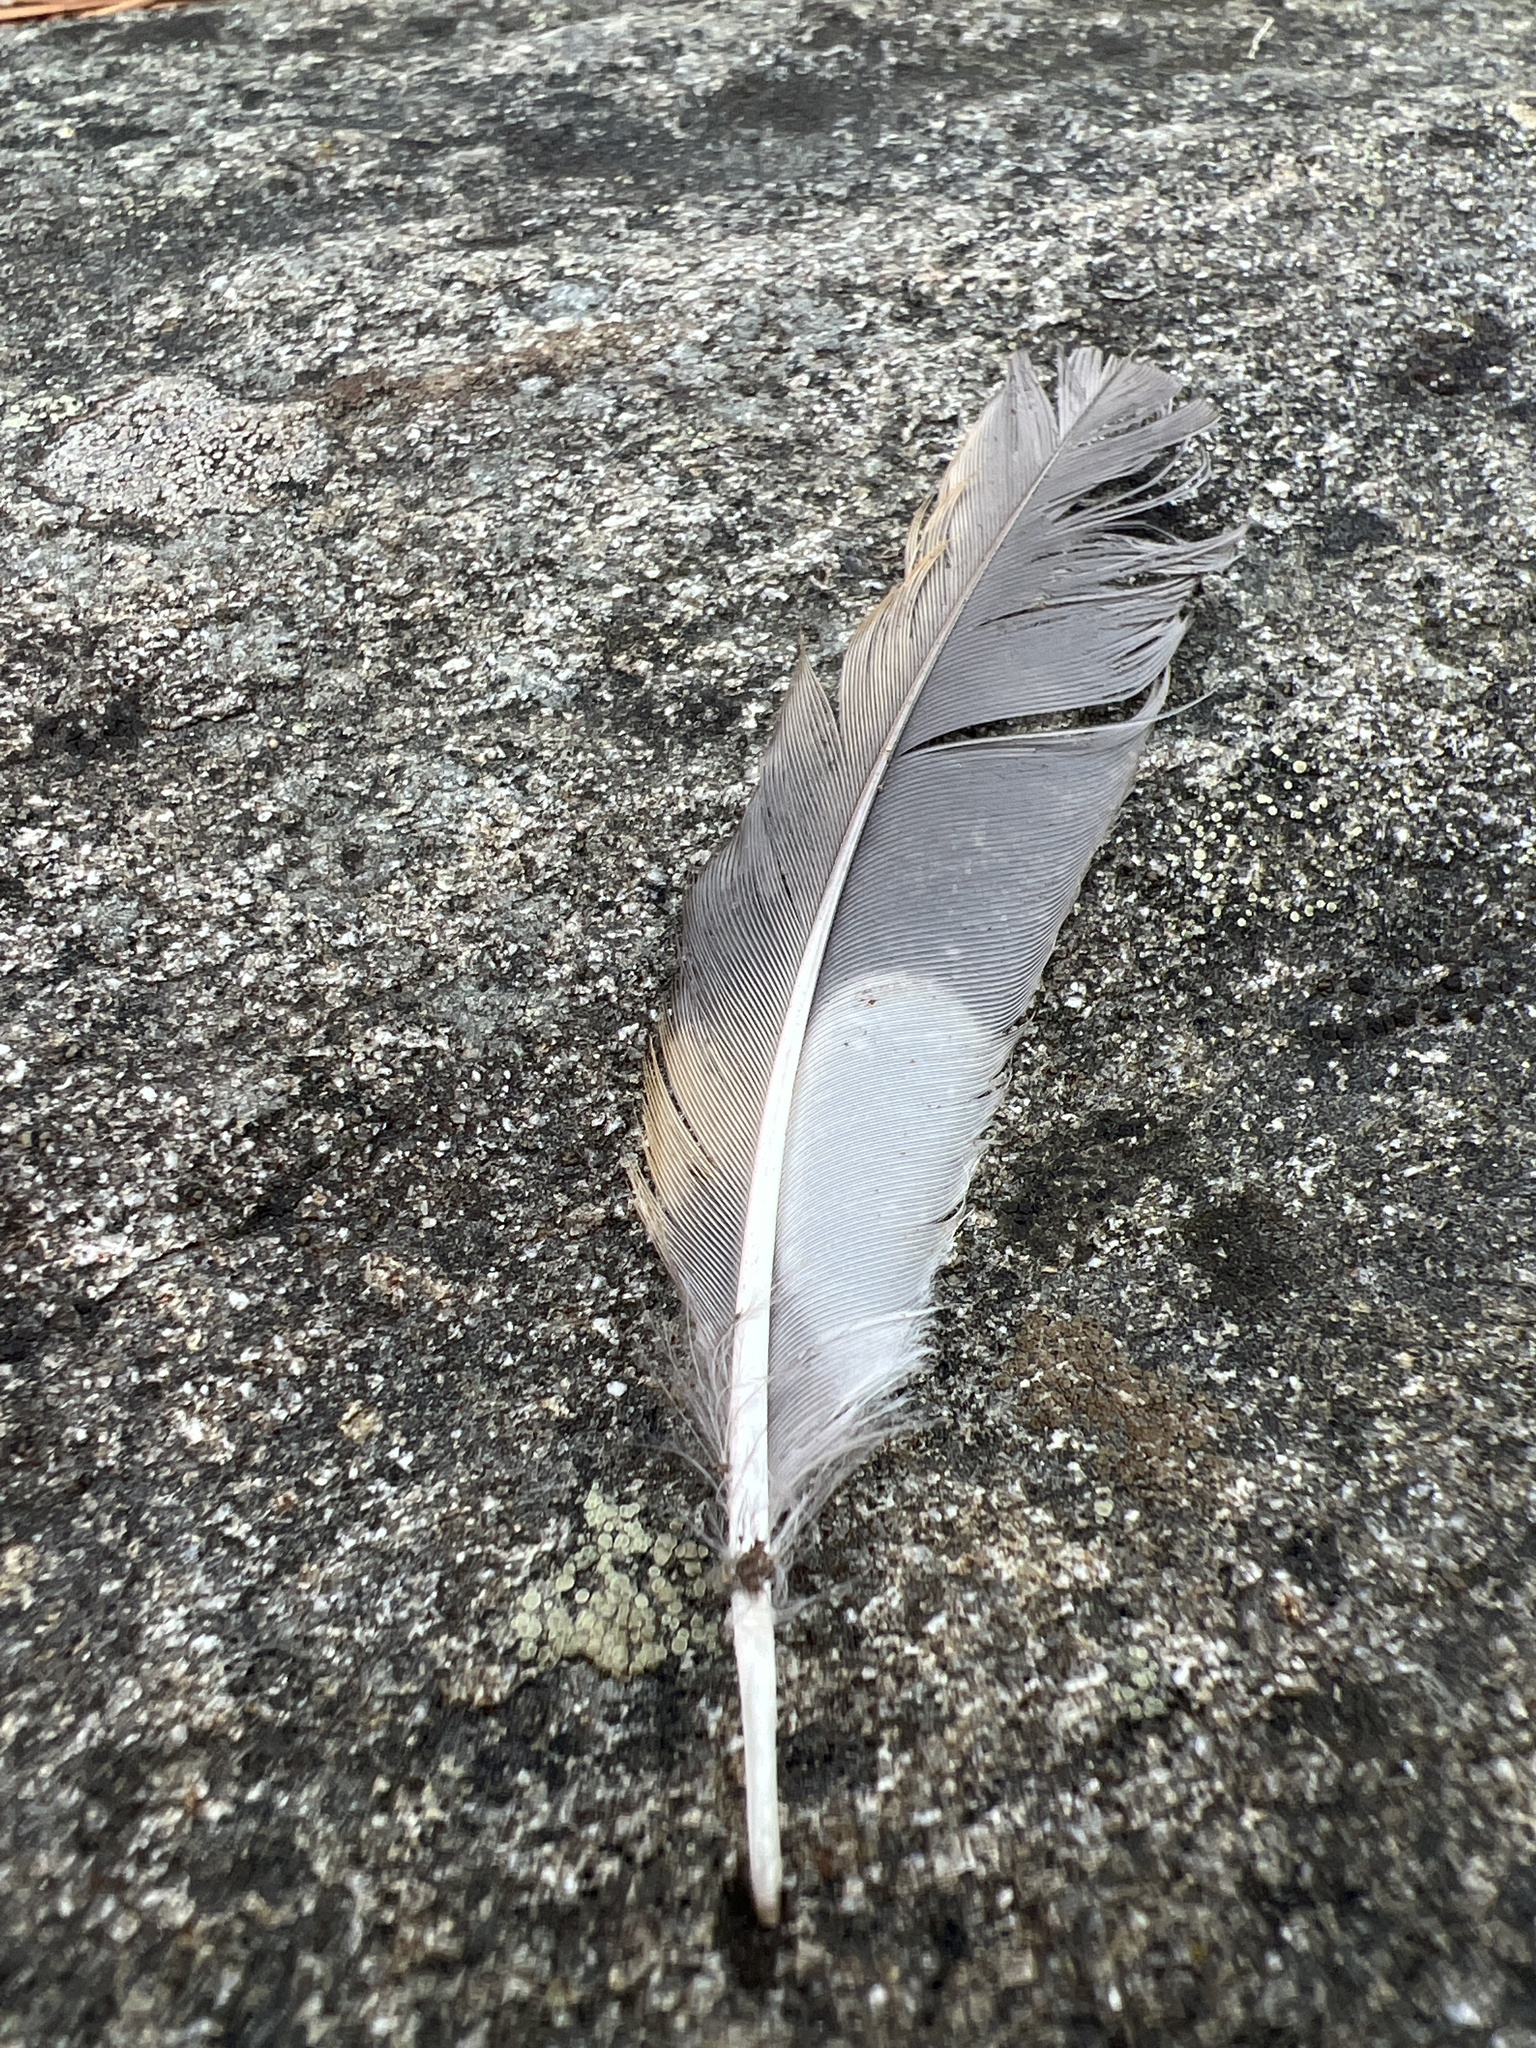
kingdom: Animalia
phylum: Chordata
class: Aves
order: Passeriformes
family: Turdidae
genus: Ixoreus
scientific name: Ixoreus naevius
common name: Varied thrush
